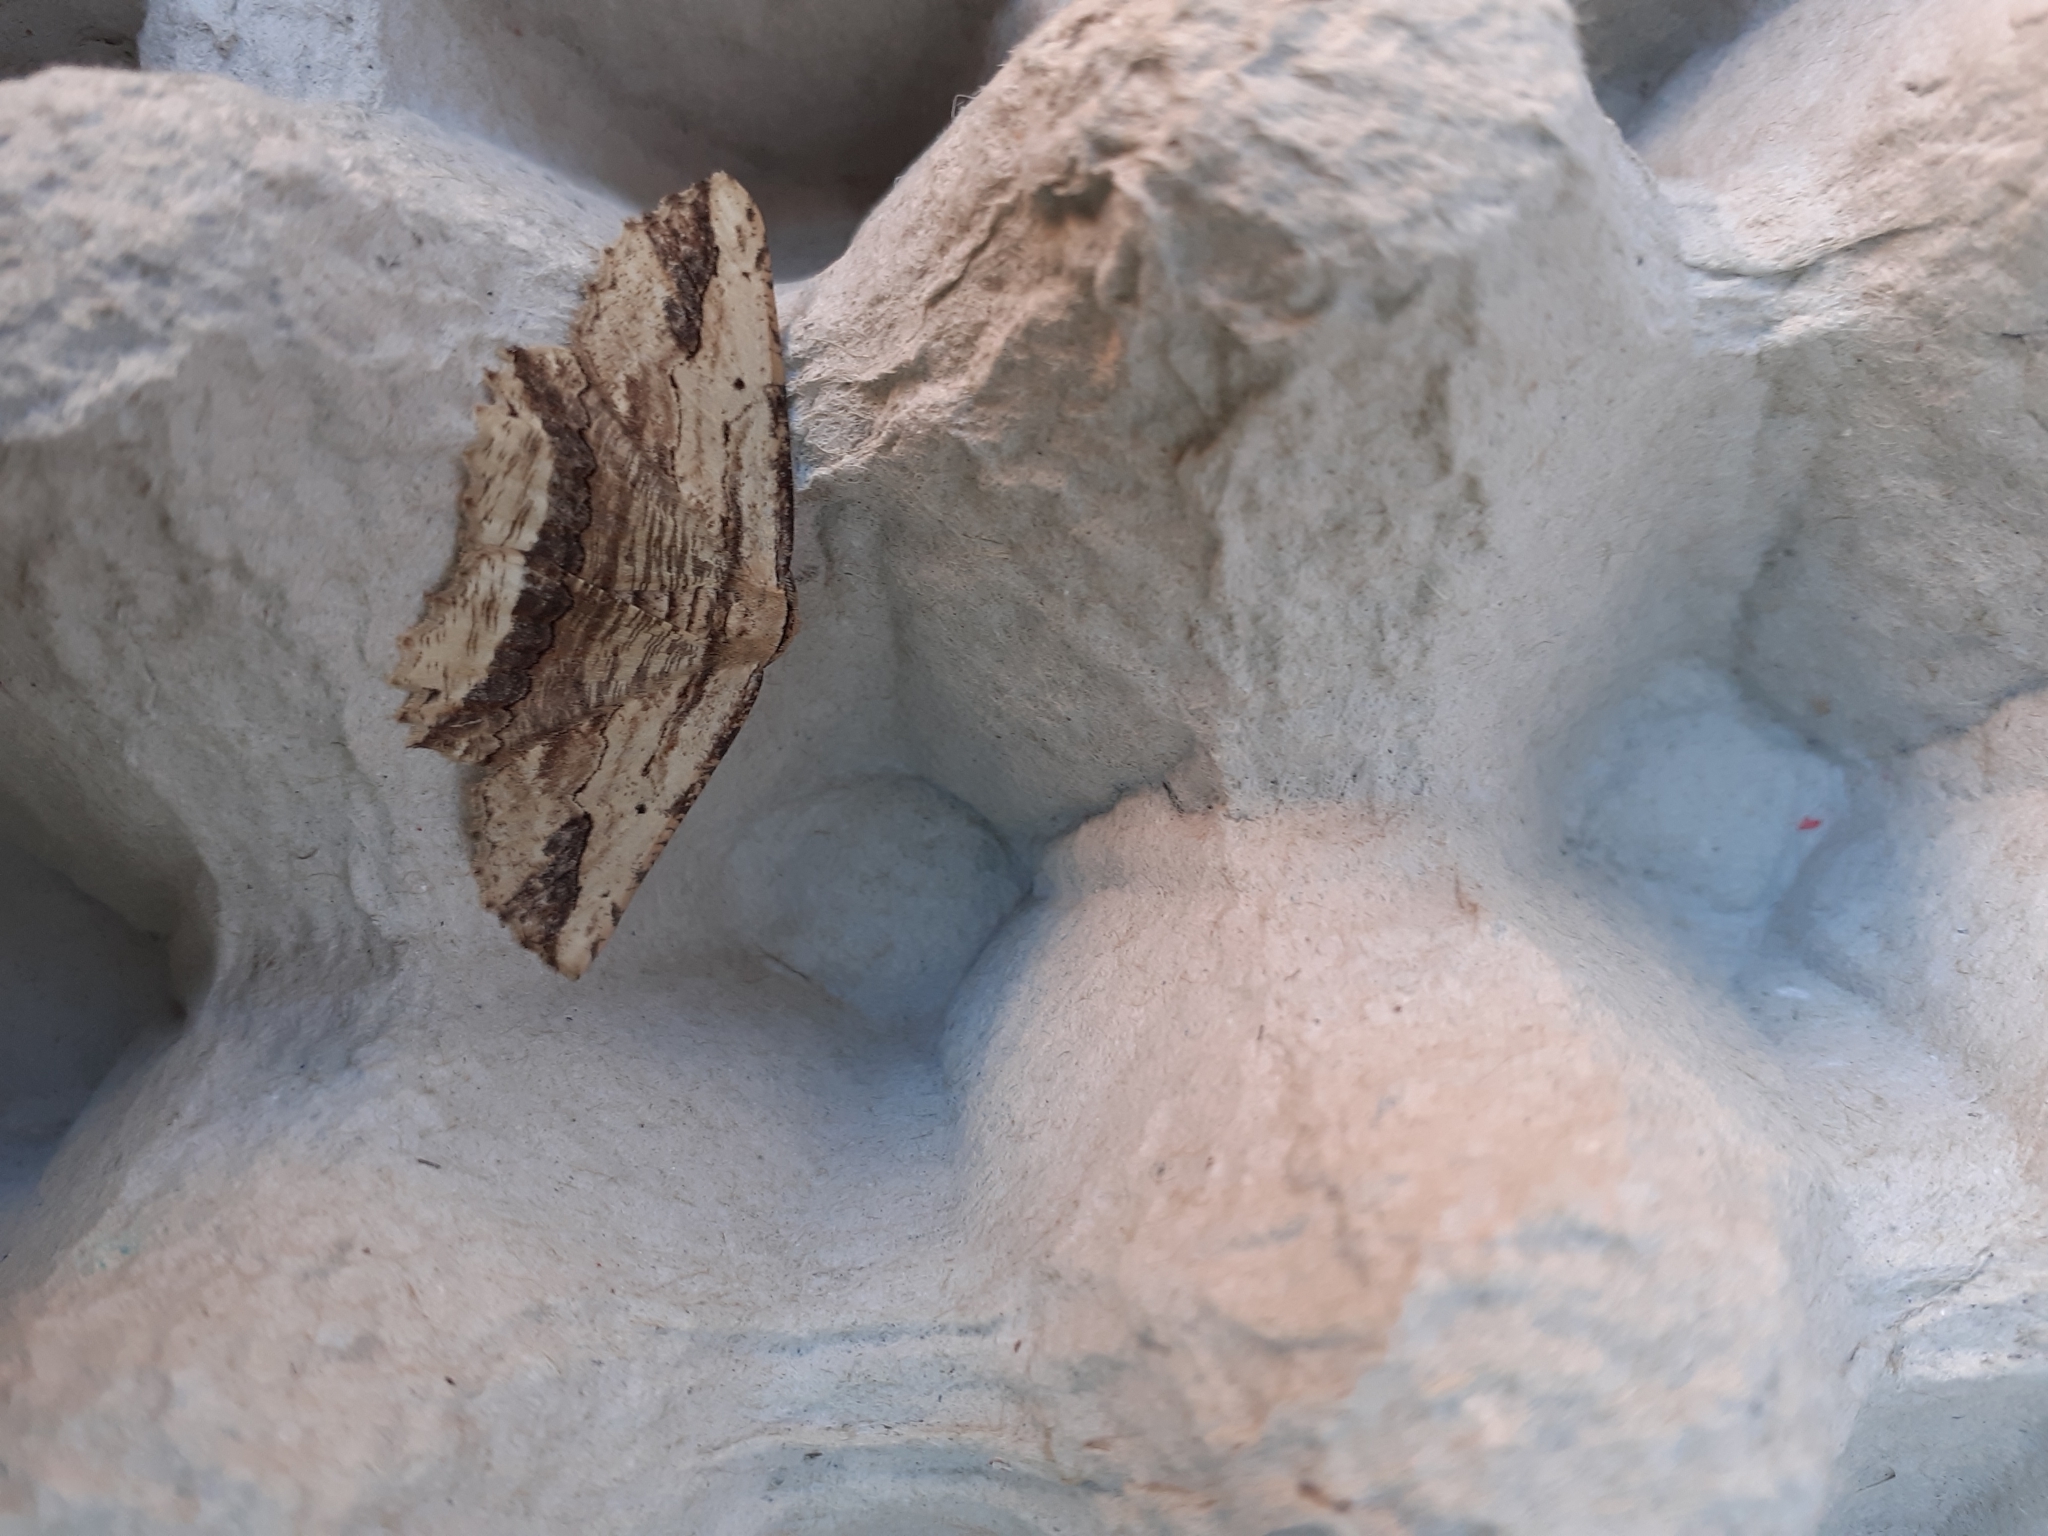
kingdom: Animalia
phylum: Arthropoda
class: Insecta
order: Lepidoptera
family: Geometridae
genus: Menophra
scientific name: Menophra abruptaria
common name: Waved umber
